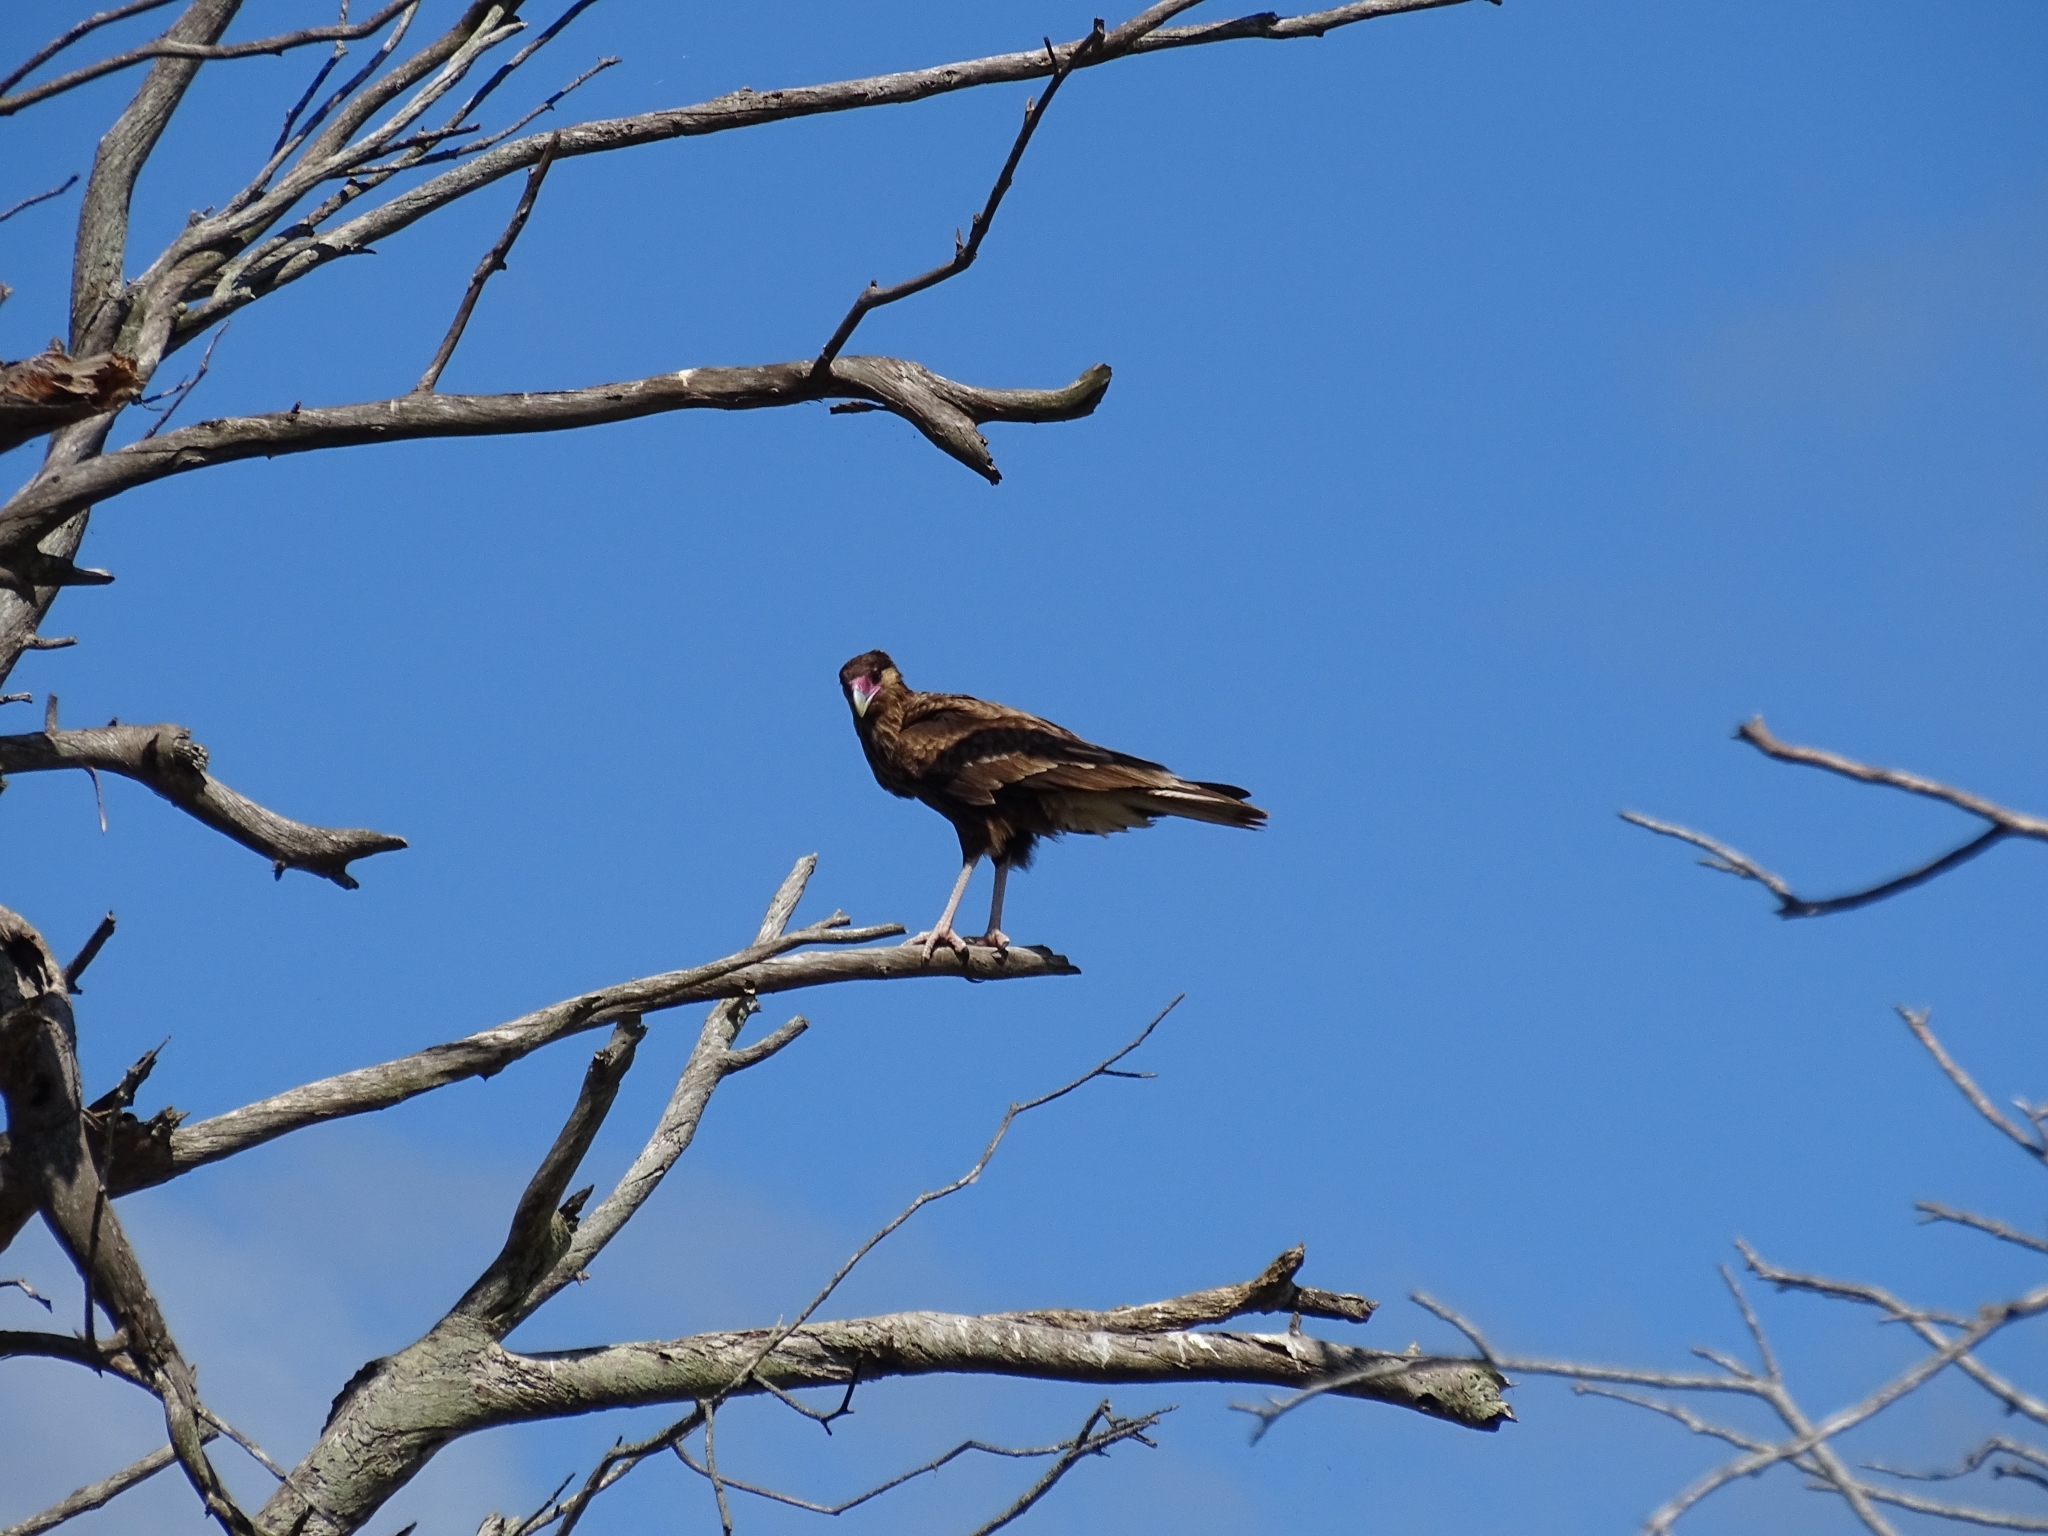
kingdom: Animalia
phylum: Chordata
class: Aves
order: Falconiformes
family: Falconidae
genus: Caracara
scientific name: Caracara plancus
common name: Southern caracara
